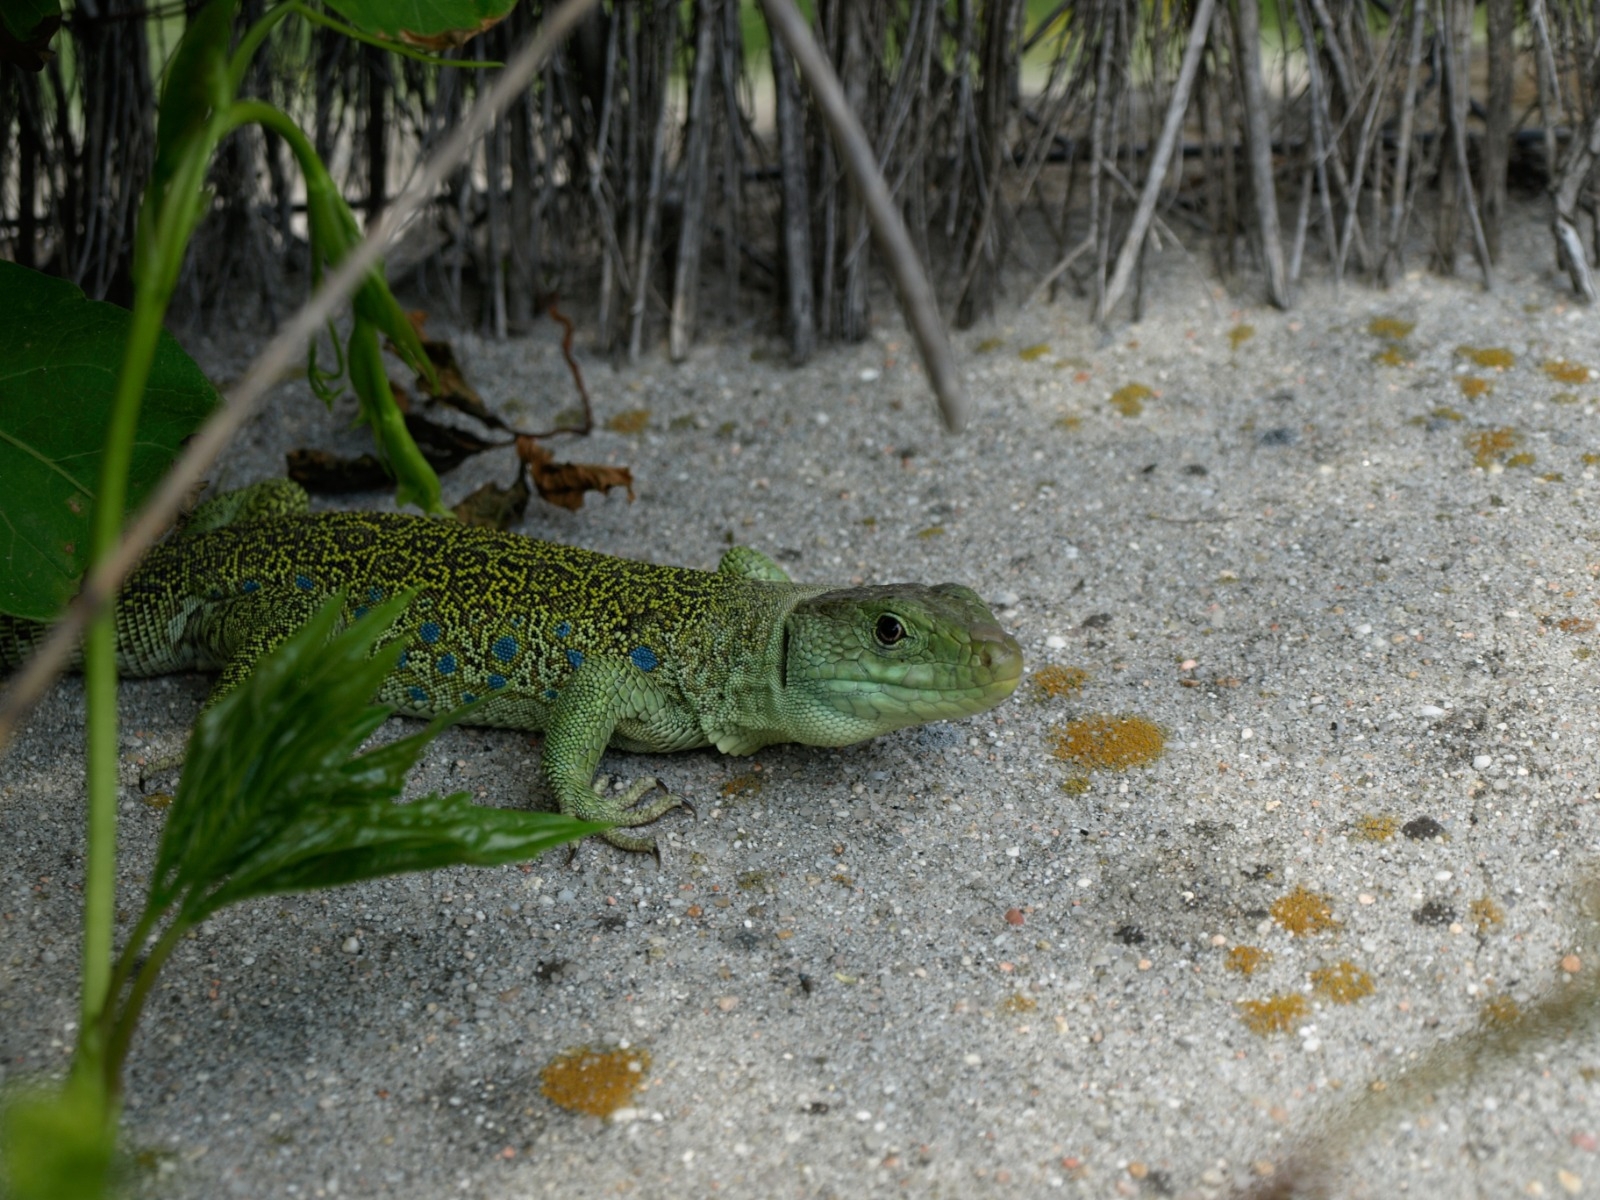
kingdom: Animalia
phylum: Chordata
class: Squamata
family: Lacertidae
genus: Timon
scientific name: Timon lepidus
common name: Ocellated lizard
